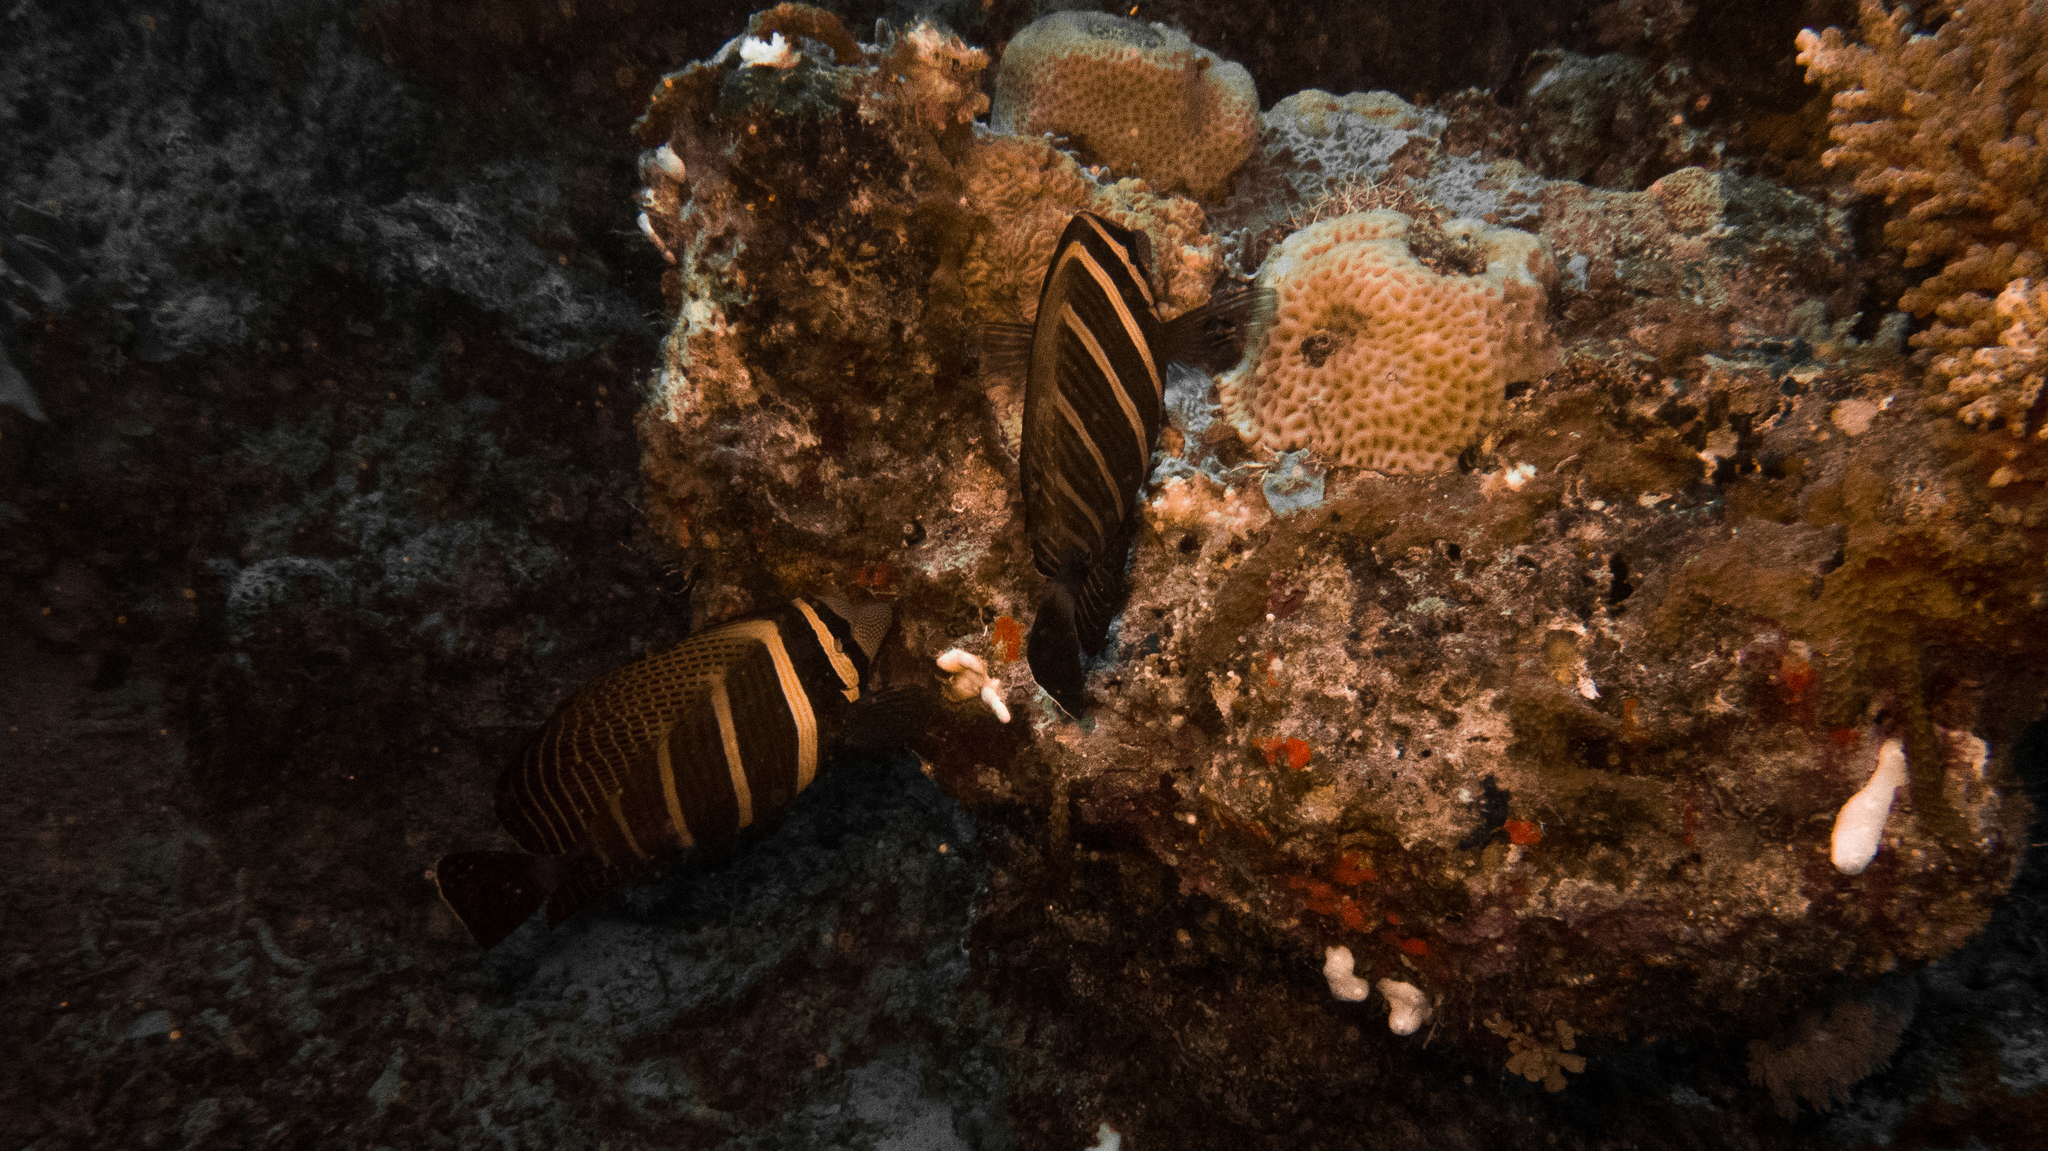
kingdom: Animalia
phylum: Chordata
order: Perciformes
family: Acanthuridae
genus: Zebrasoma
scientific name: Zebrasoma veliferum
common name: Sailfin surgeonfish
